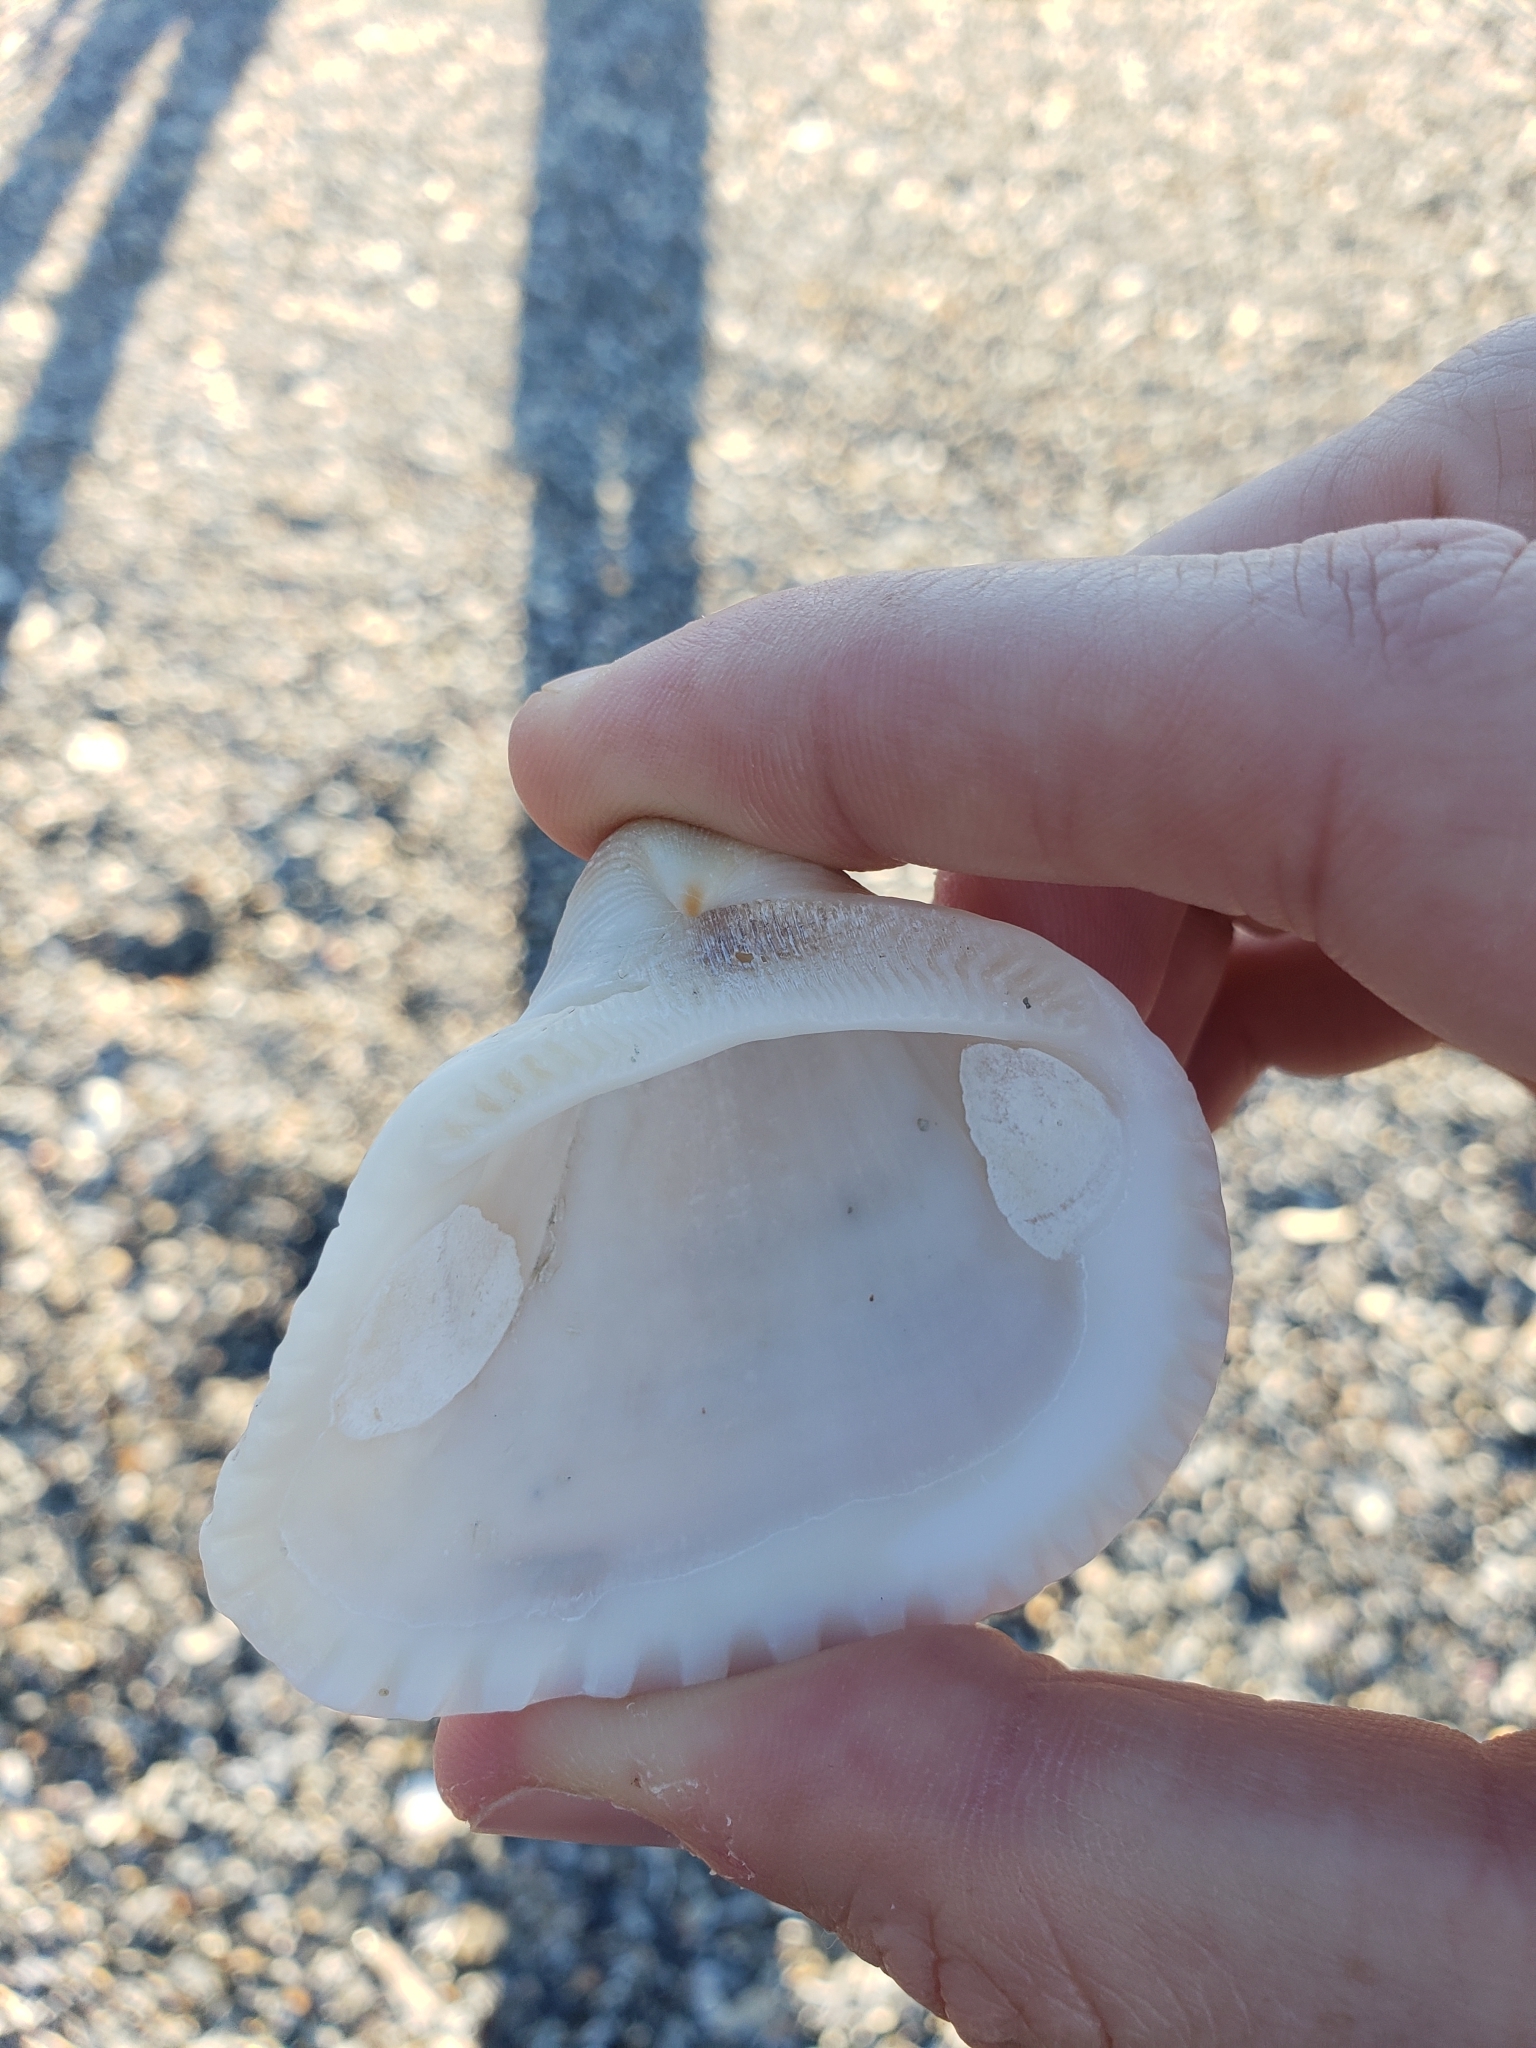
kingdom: Animalia
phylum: Mollusca
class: Bivalvia
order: Arcida
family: Noetiidae
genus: Noetia
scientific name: Noetia ponderosa
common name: Ponderous ark
